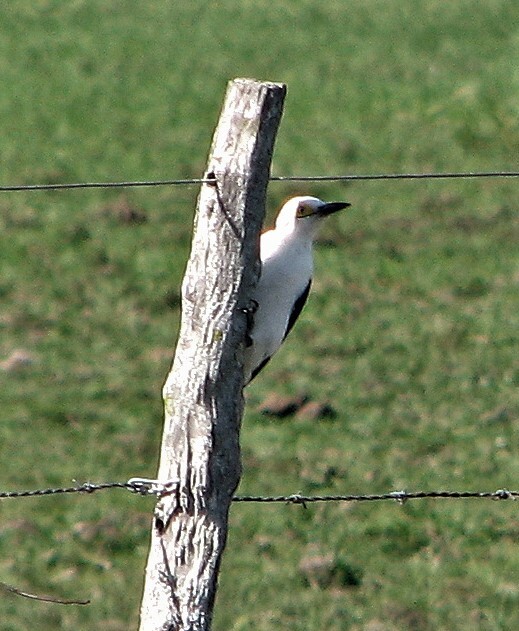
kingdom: Animalia
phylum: Chordata
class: Aves
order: Piciformes
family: Picidae
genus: Melanerpes
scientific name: Melanerpes candidus
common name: White woodpecker
